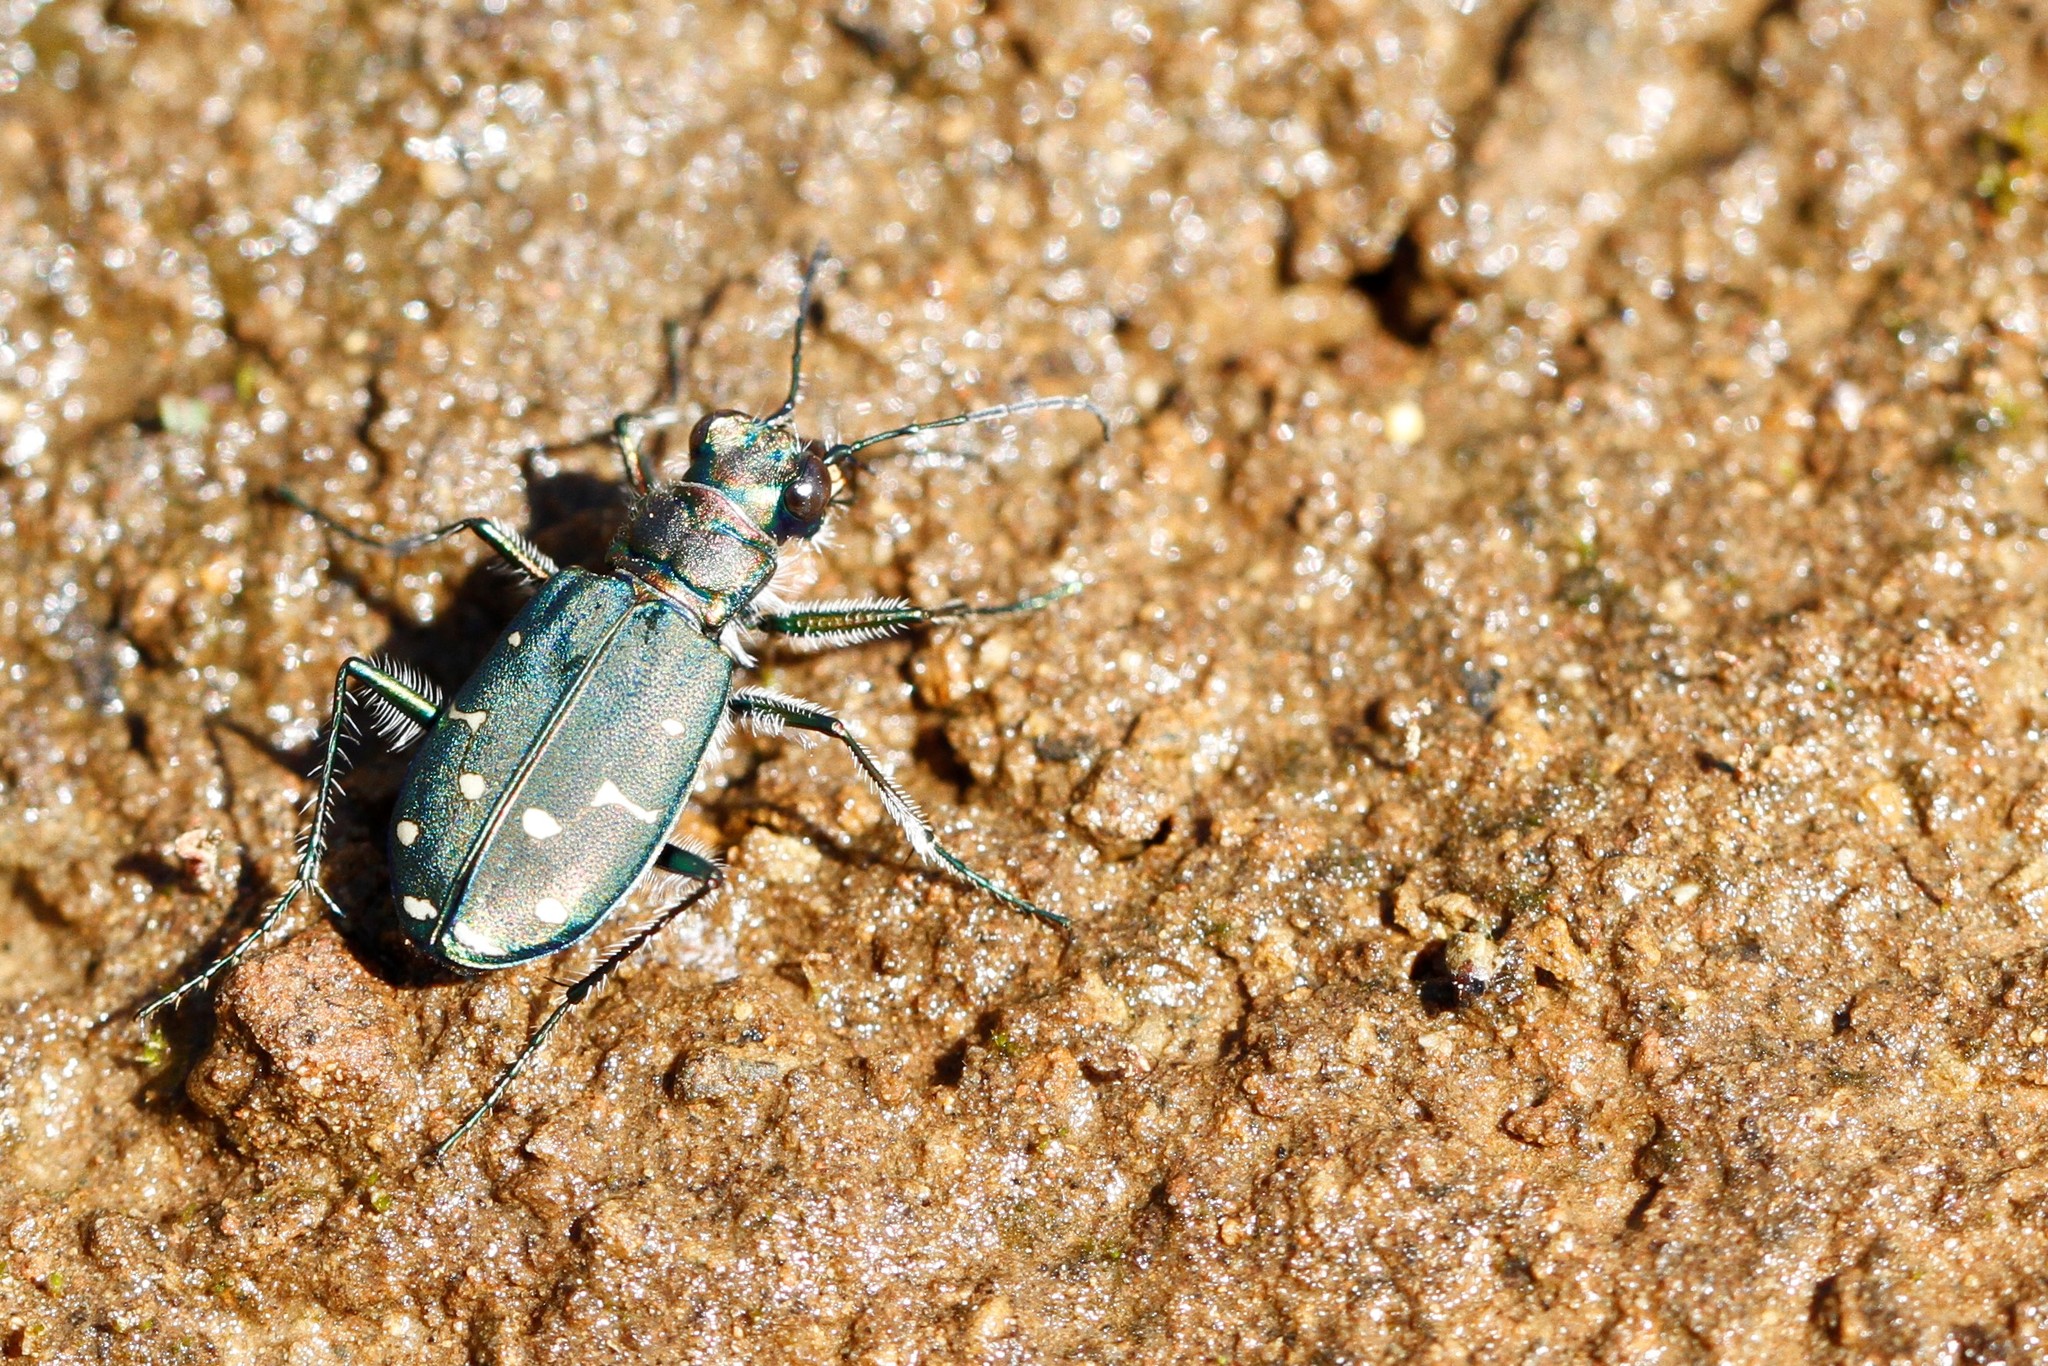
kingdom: Animalia
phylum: Arthropoda
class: Insecta
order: Coleoptera
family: Carabidae
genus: Cicindela
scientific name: Cicindela oregona
